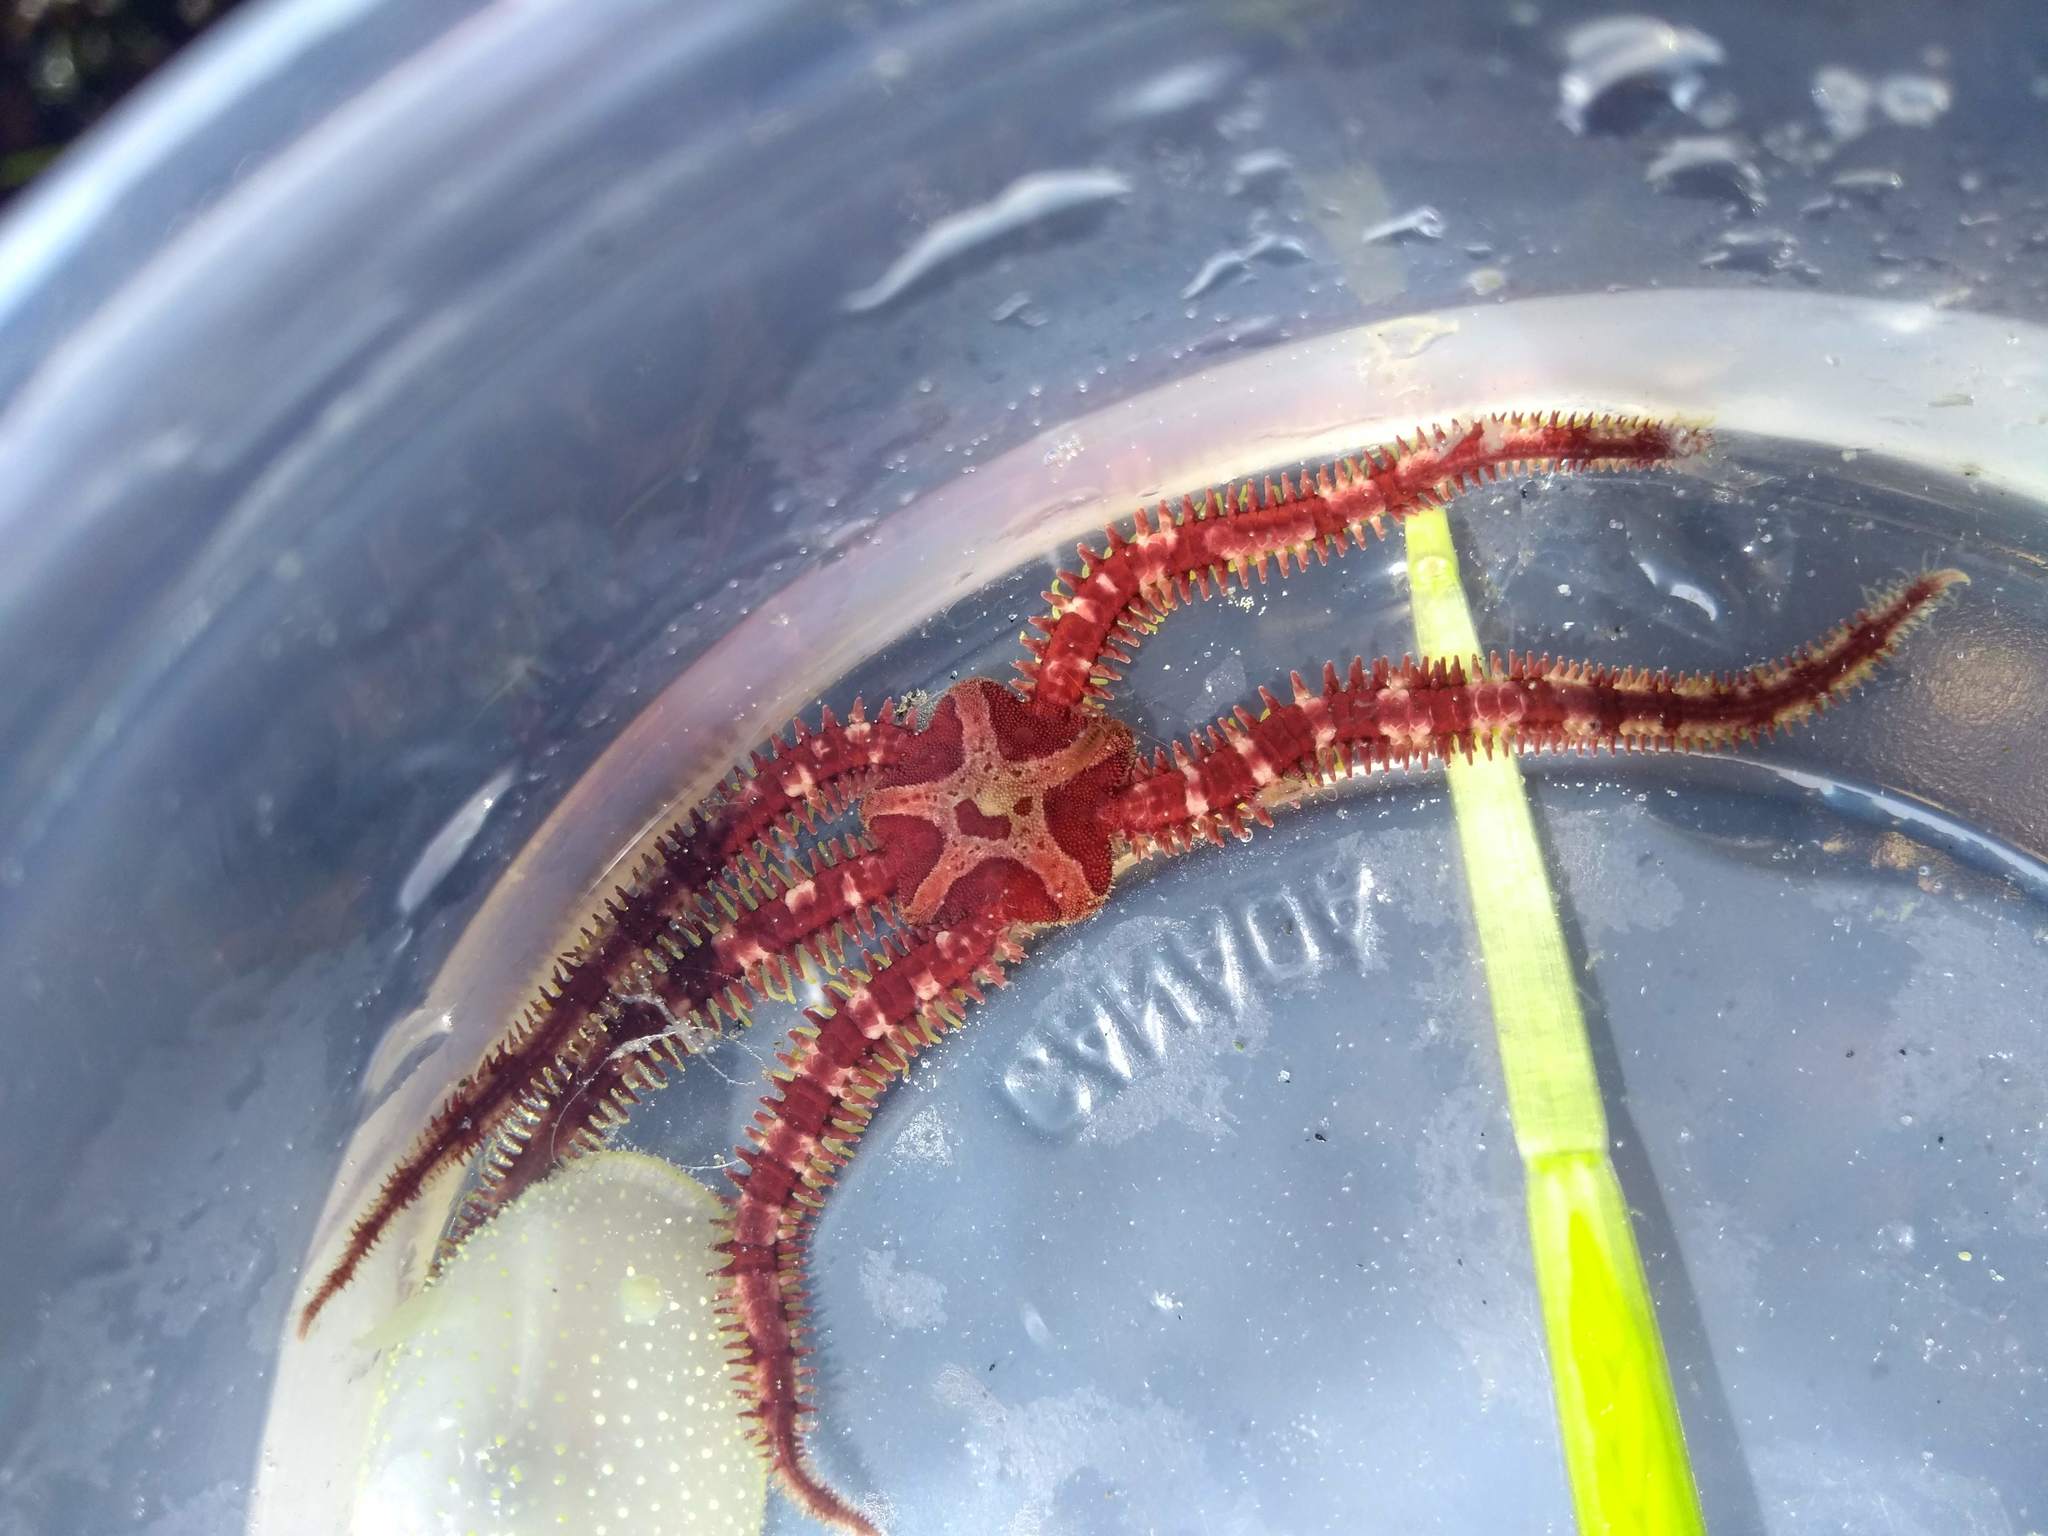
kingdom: Animalia
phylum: Echinodermata
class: Ophiuroidea
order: Amphilepidida
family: Ophiopholidae
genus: Ophiopholis
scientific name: Ophiopholis aculeata
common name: Crevice brittlestar
